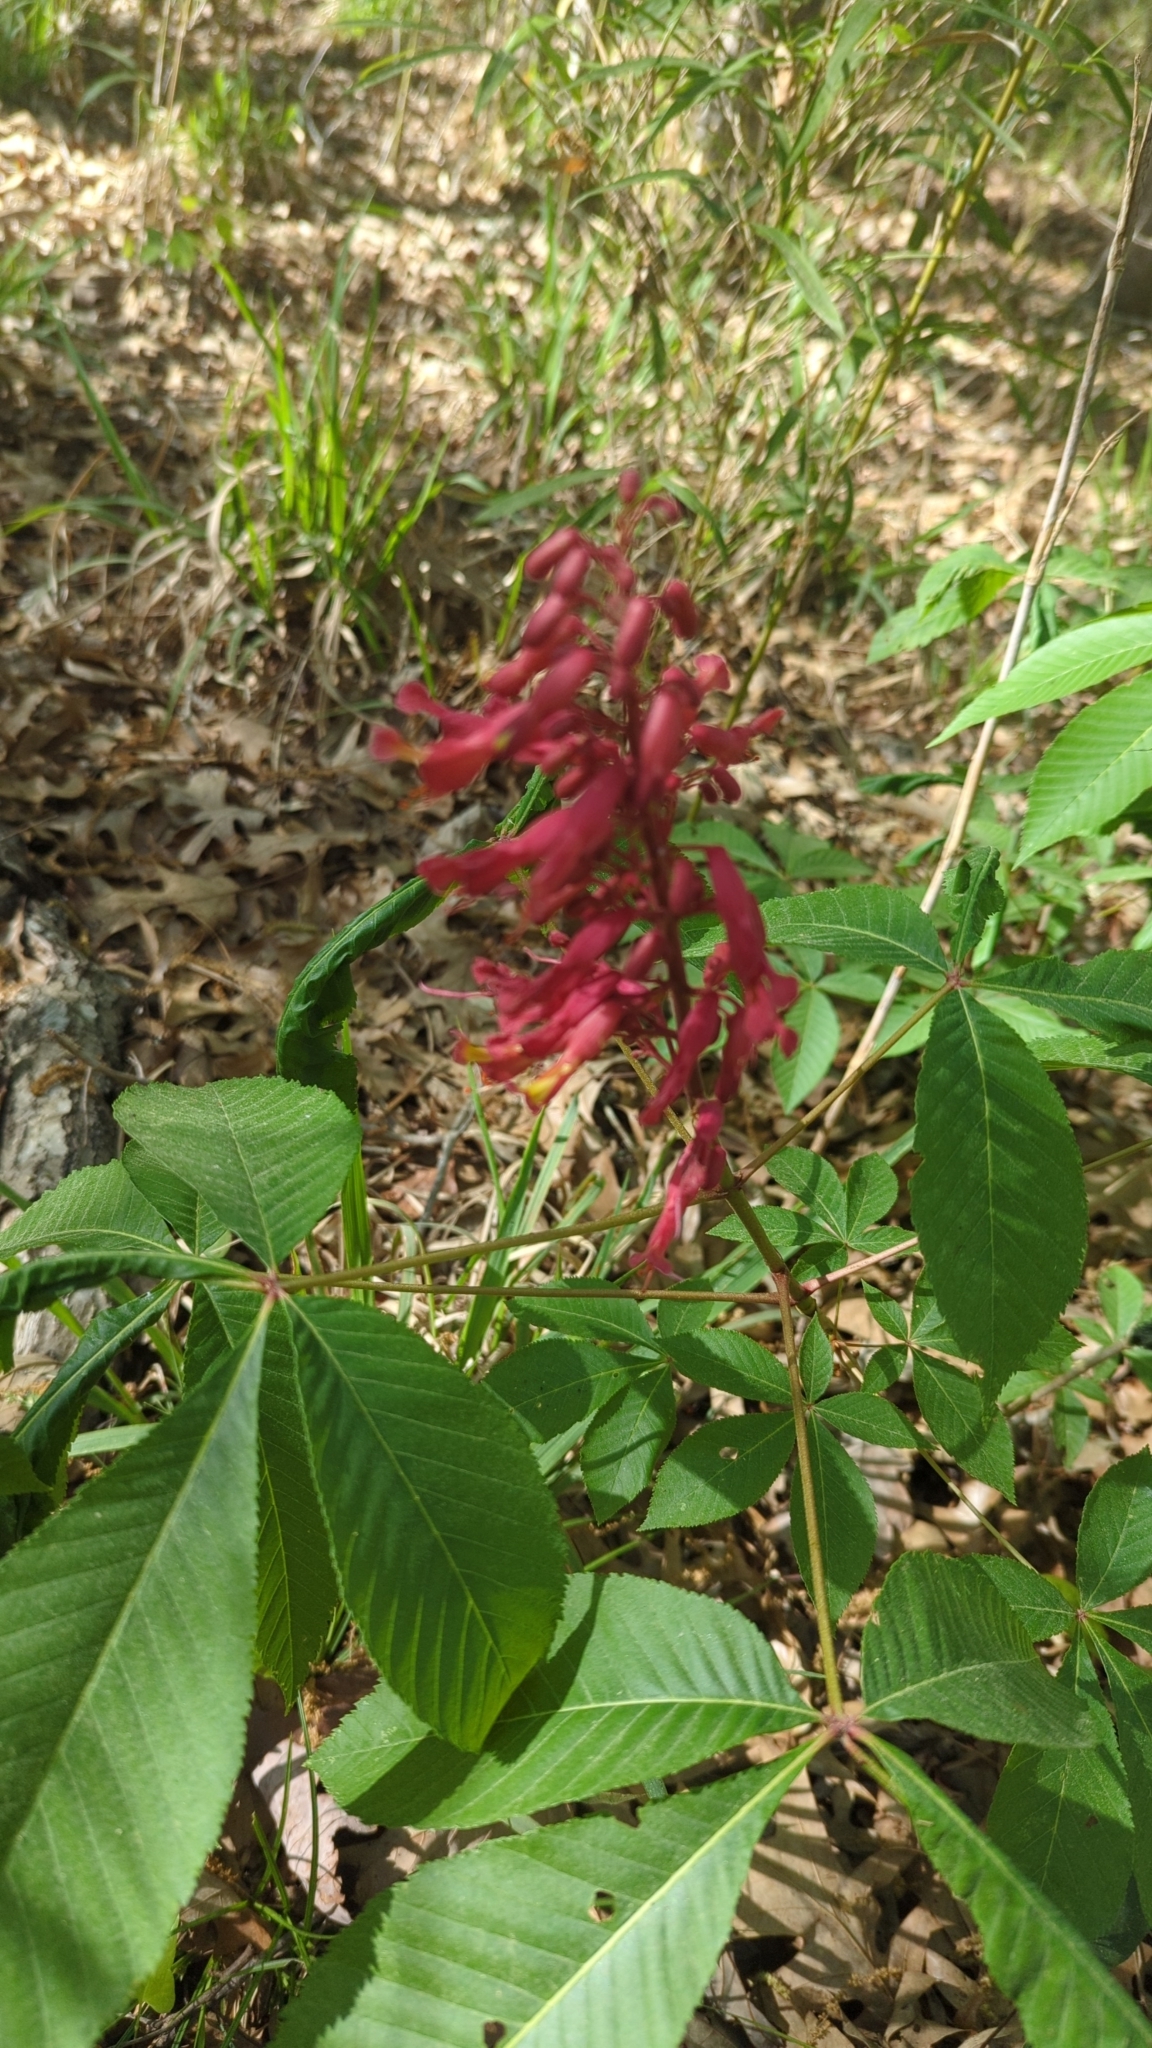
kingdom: Plantae
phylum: Tracheophyta
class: Magnoliopsida
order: Sapindales
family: Sapindaceae
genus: Aesculus
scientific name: Aesculus pavia
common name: Red buckeye
